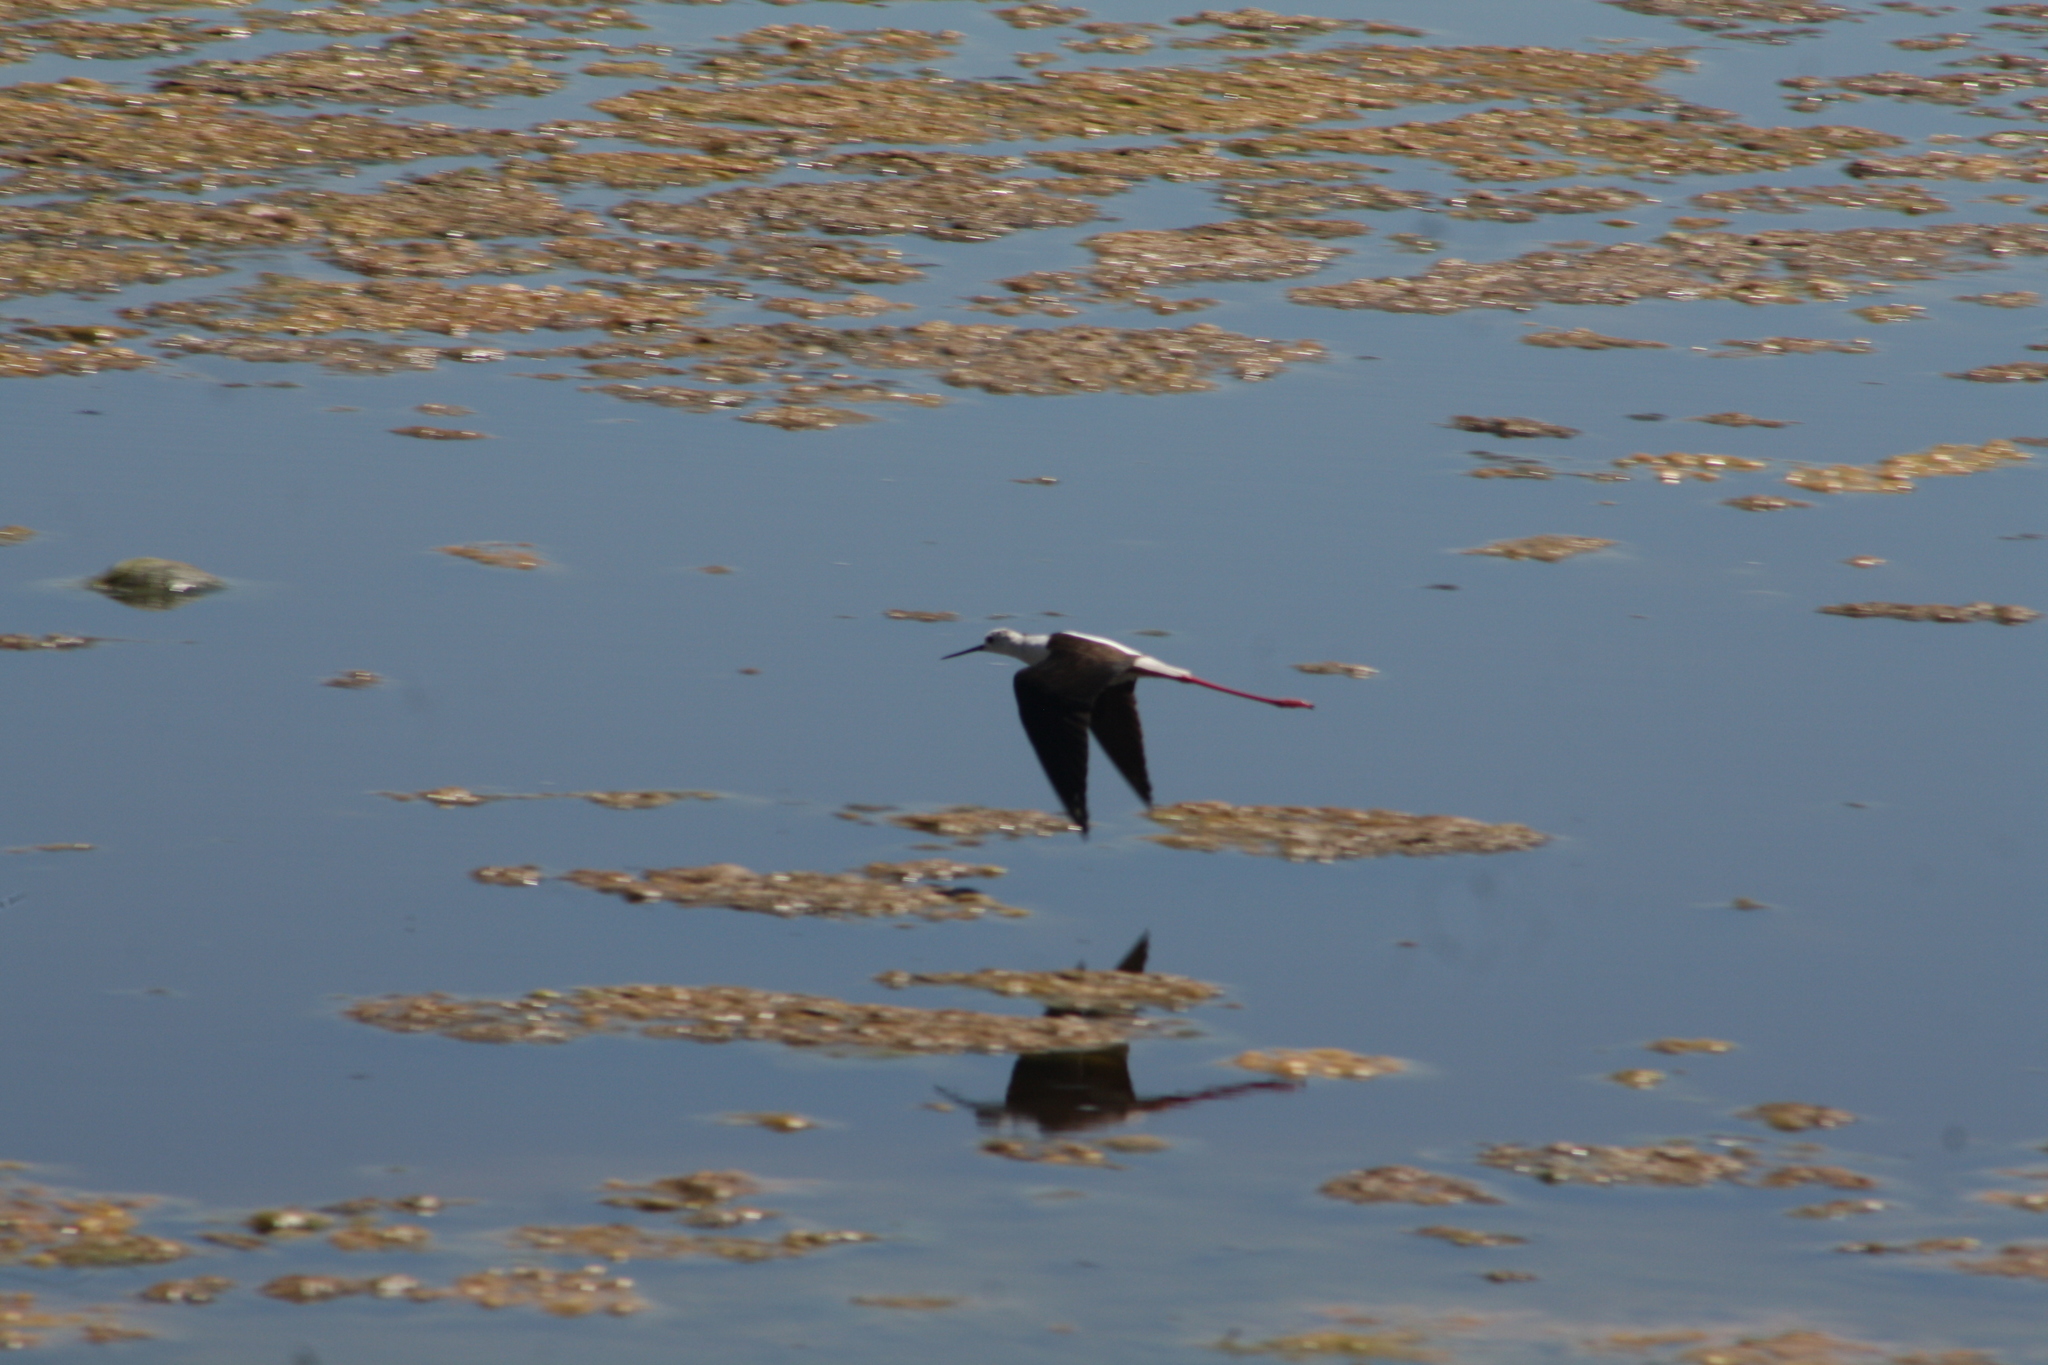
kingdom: Animalia
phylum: Chordata
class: Aves
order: Charadriiformes
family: Recurvirostridae
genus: Himantopus
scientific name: Himantopus himantopus
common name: Black-winged stilt
